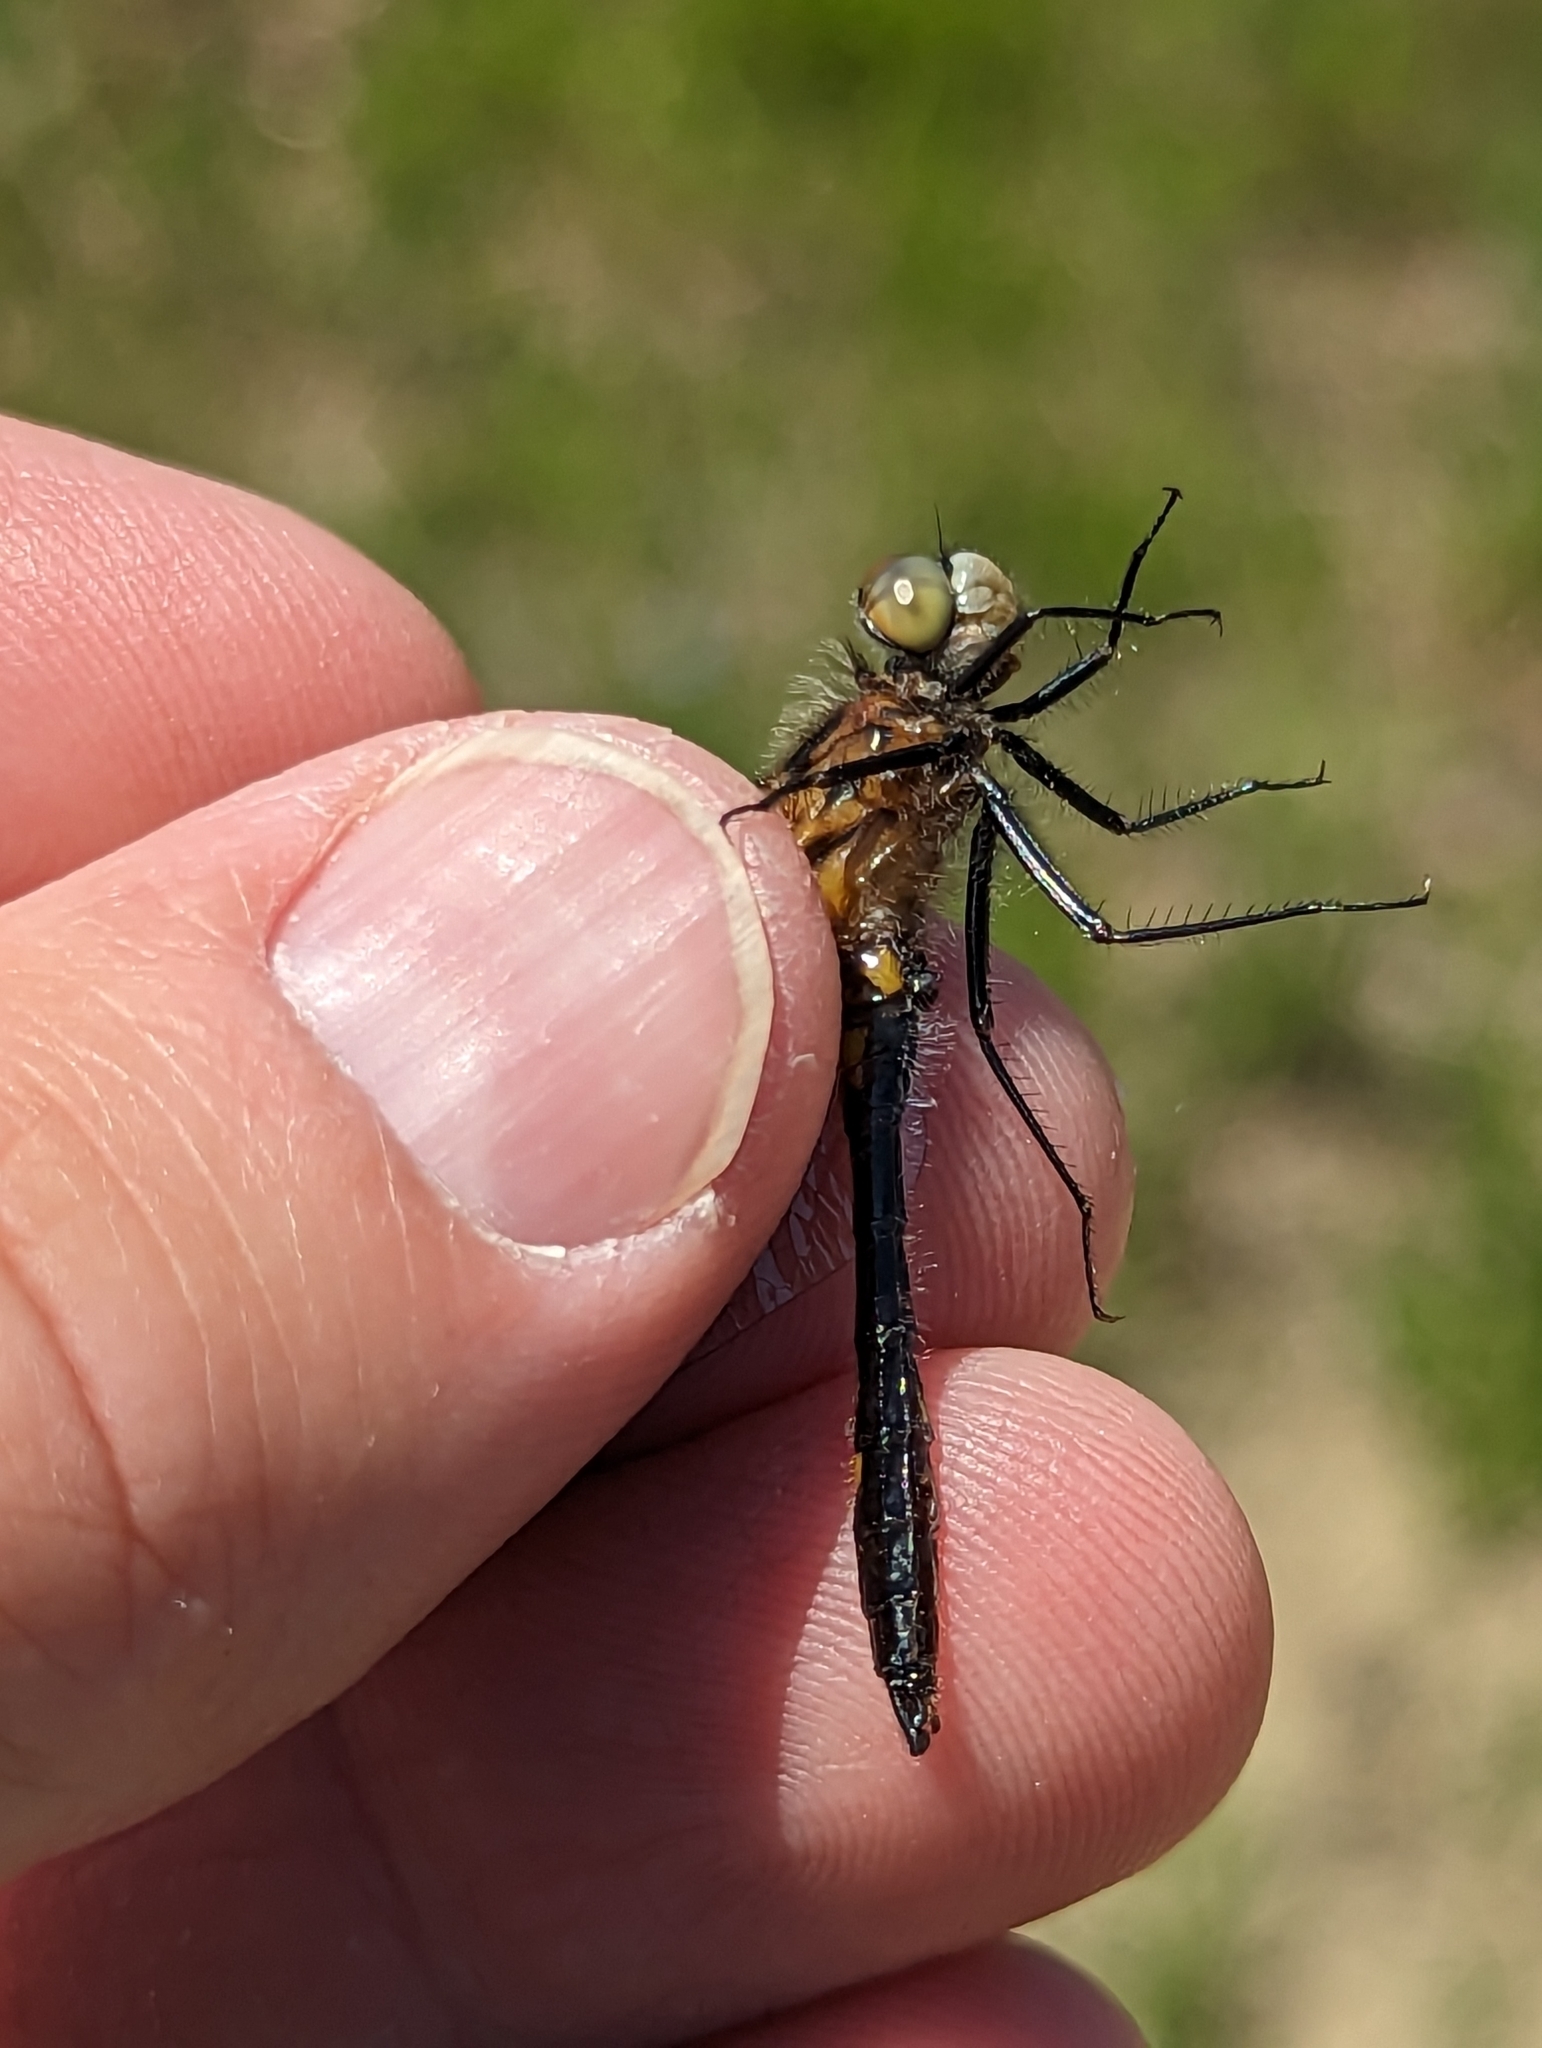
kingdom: Animalia
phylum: Arthropoda
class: Insecta
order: Odonata
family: Libellulidae
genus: Leucorrhinia
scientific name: Leucorrhinia intacta
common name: Dot-tailed whiteface
